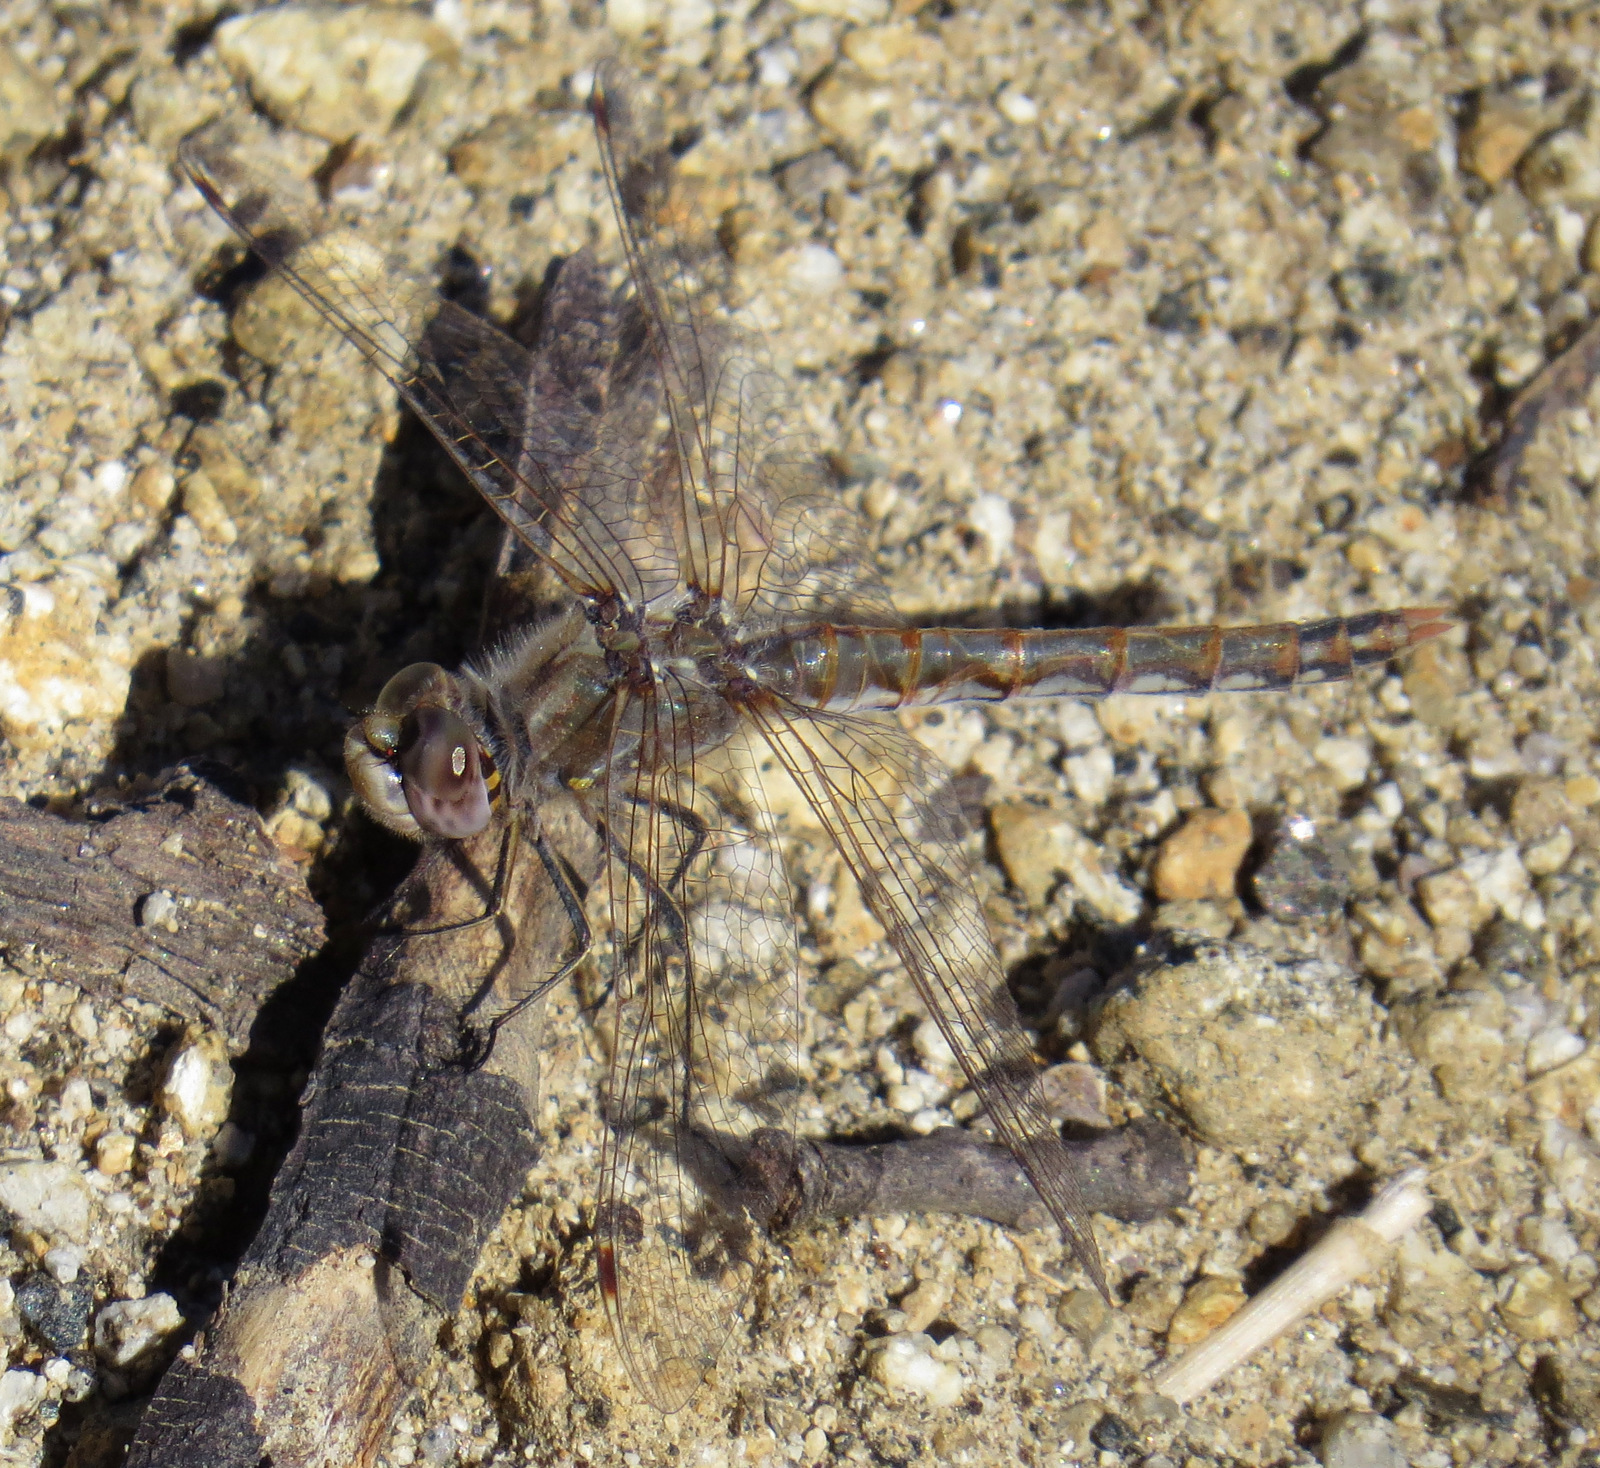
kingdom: Animalia
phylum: Arthropoda
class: Insecta
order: Odonata
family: Libellulidae
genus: Sympetrum
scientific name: Sympetrum corruptum
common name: Variegated meadowhawk
